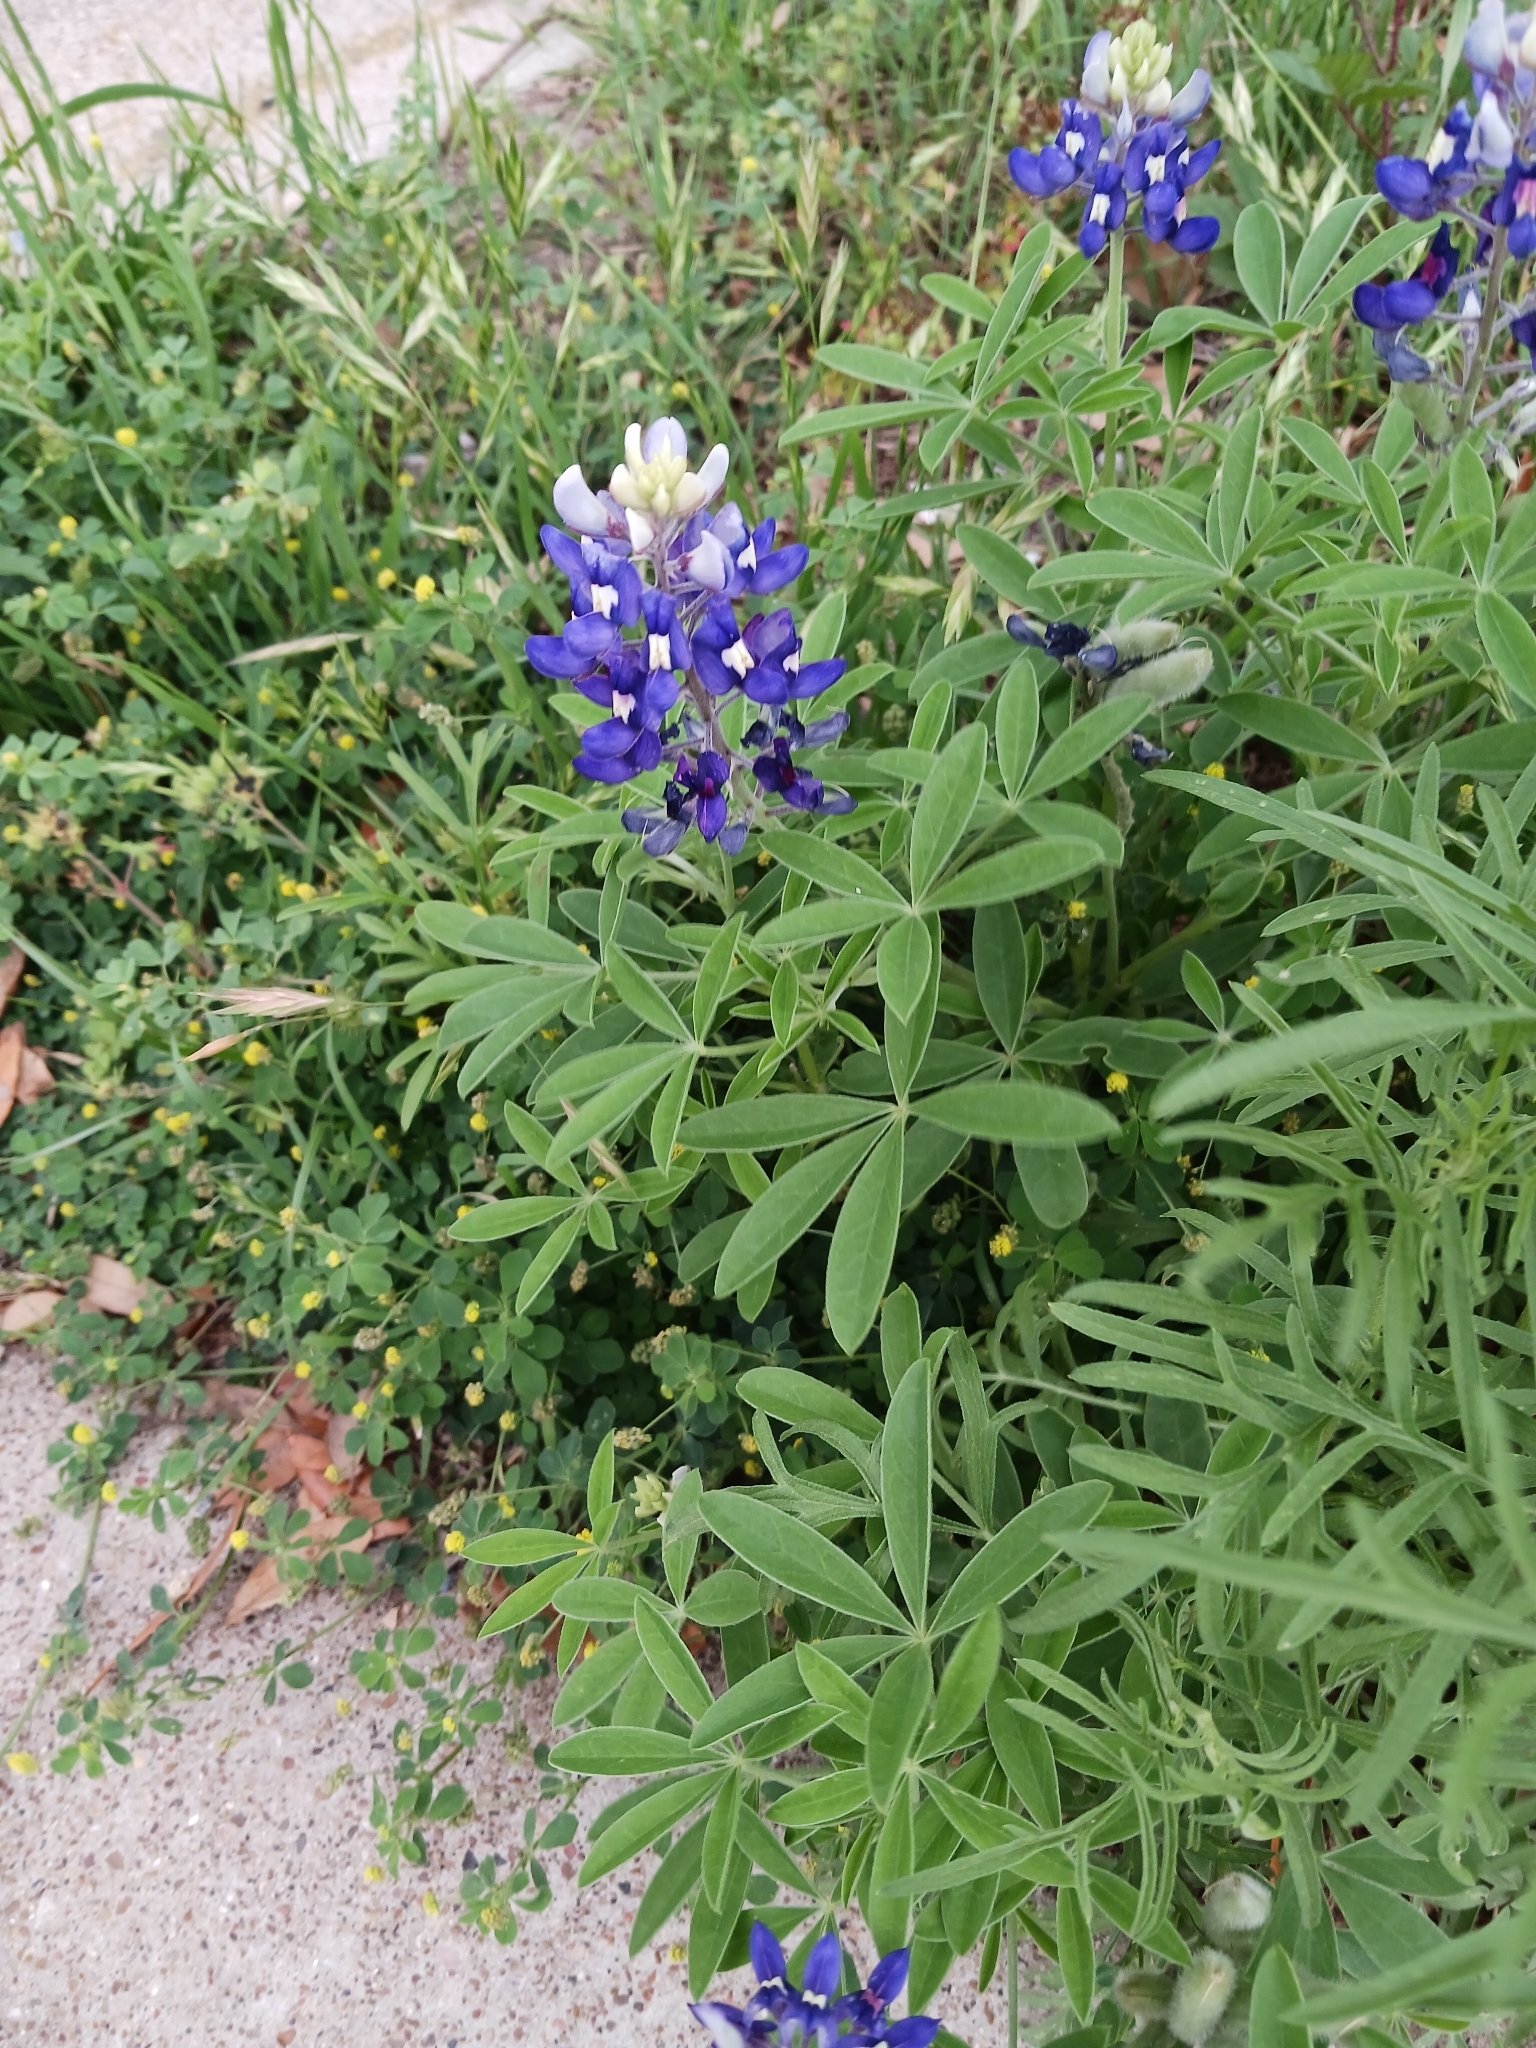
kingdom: Plantae
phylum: Tracheophyta
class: Magnoliopsida
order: Fabales
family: Fabaceae
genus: Lupinus
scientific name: Lupinus texensis
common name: Texas bluebonnet
